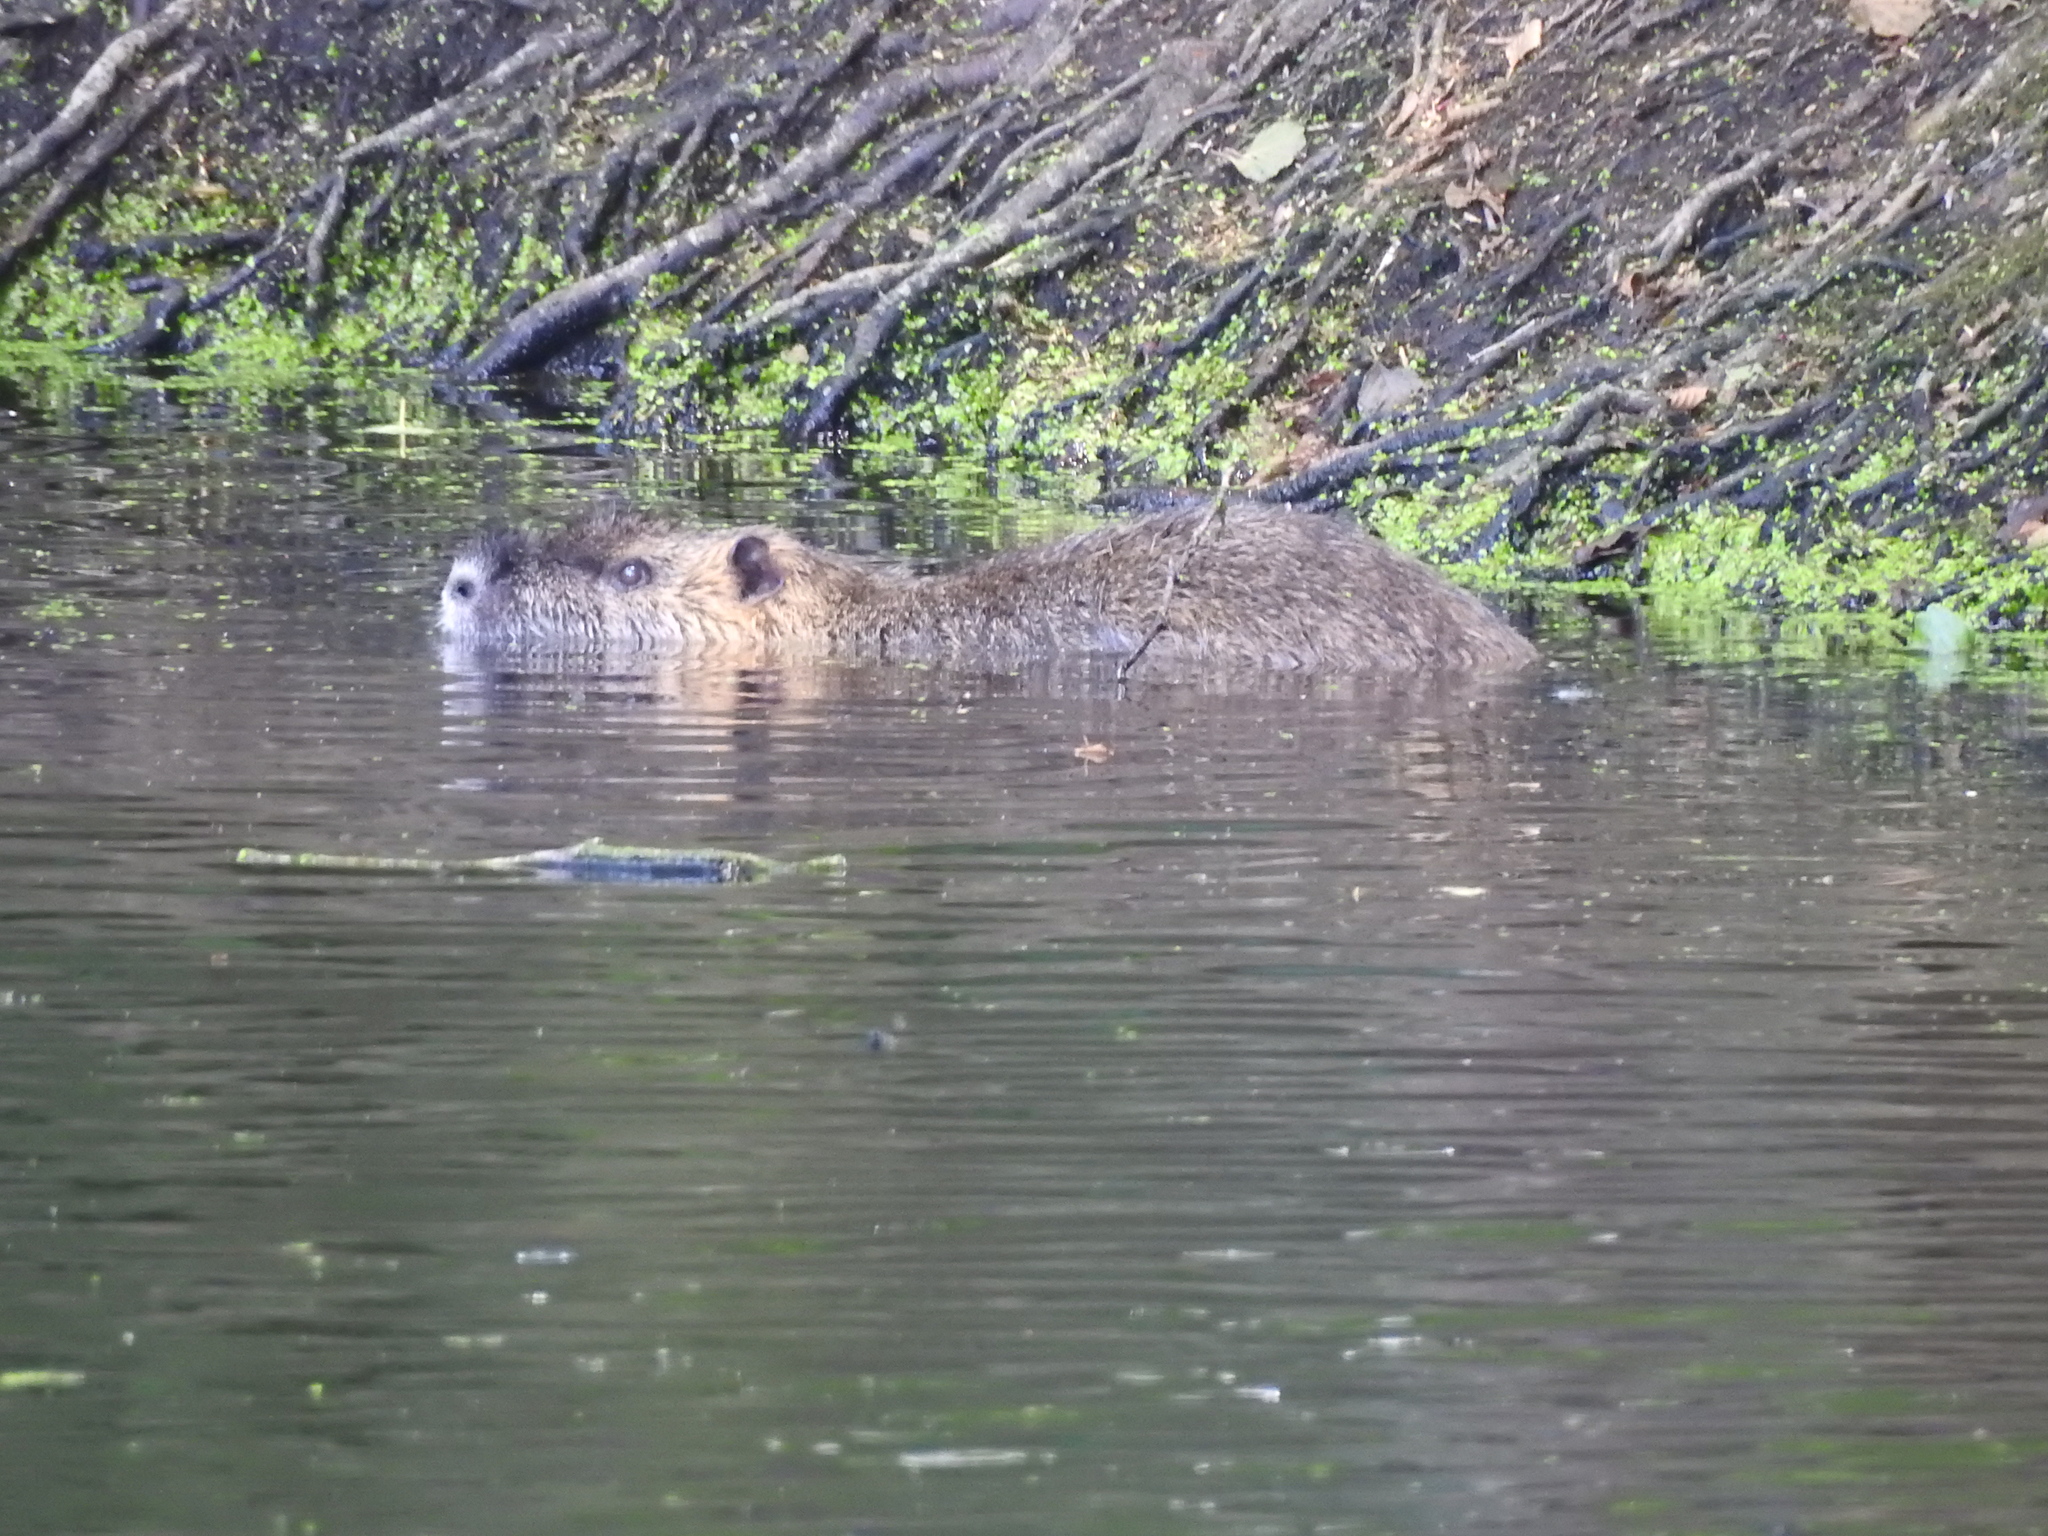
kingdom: Animalia
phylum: Chordata
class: Mammalia
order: Rodentia
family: Myocastoridae
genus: Myocastor
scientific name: Myocastor coypus
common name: Coypu
